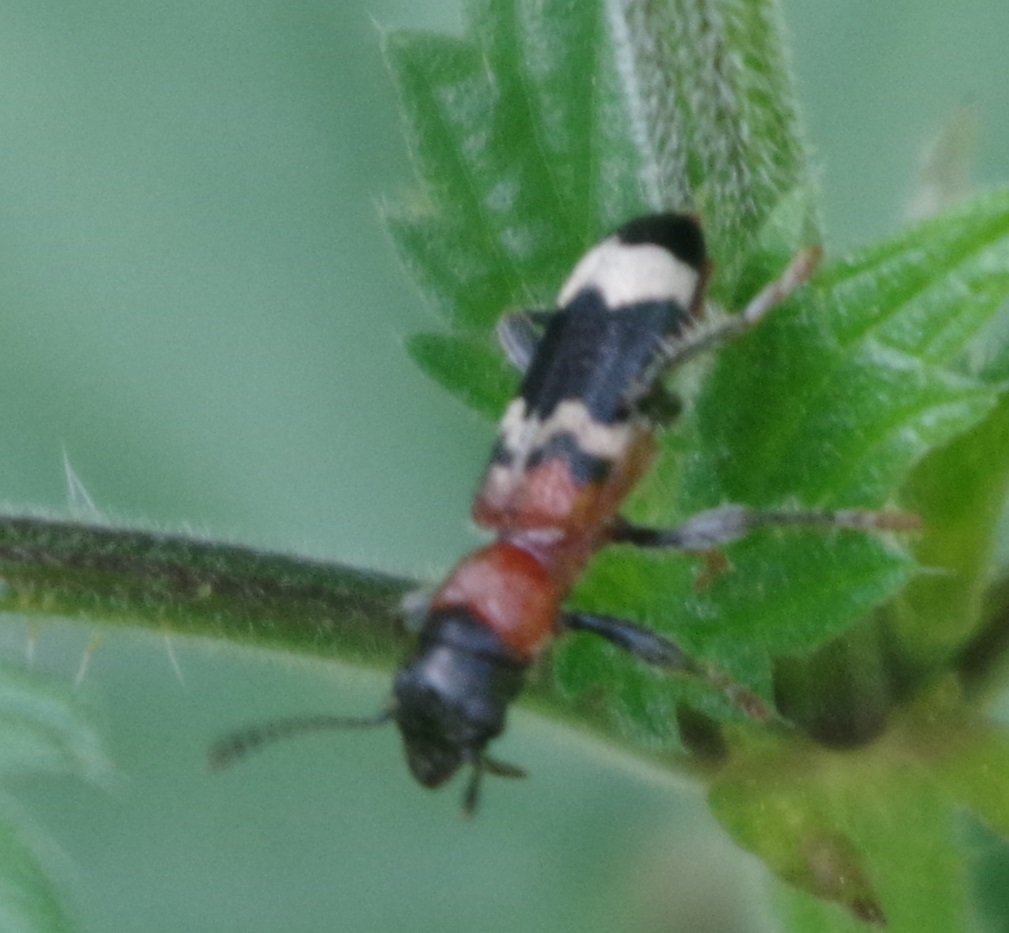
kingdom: Animalia
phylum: Arthropoda
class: Insecta
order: Coleoptera
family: Cleridae
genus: Thanasimus
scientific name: Thanasimus formicarius
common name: Ant beetle
